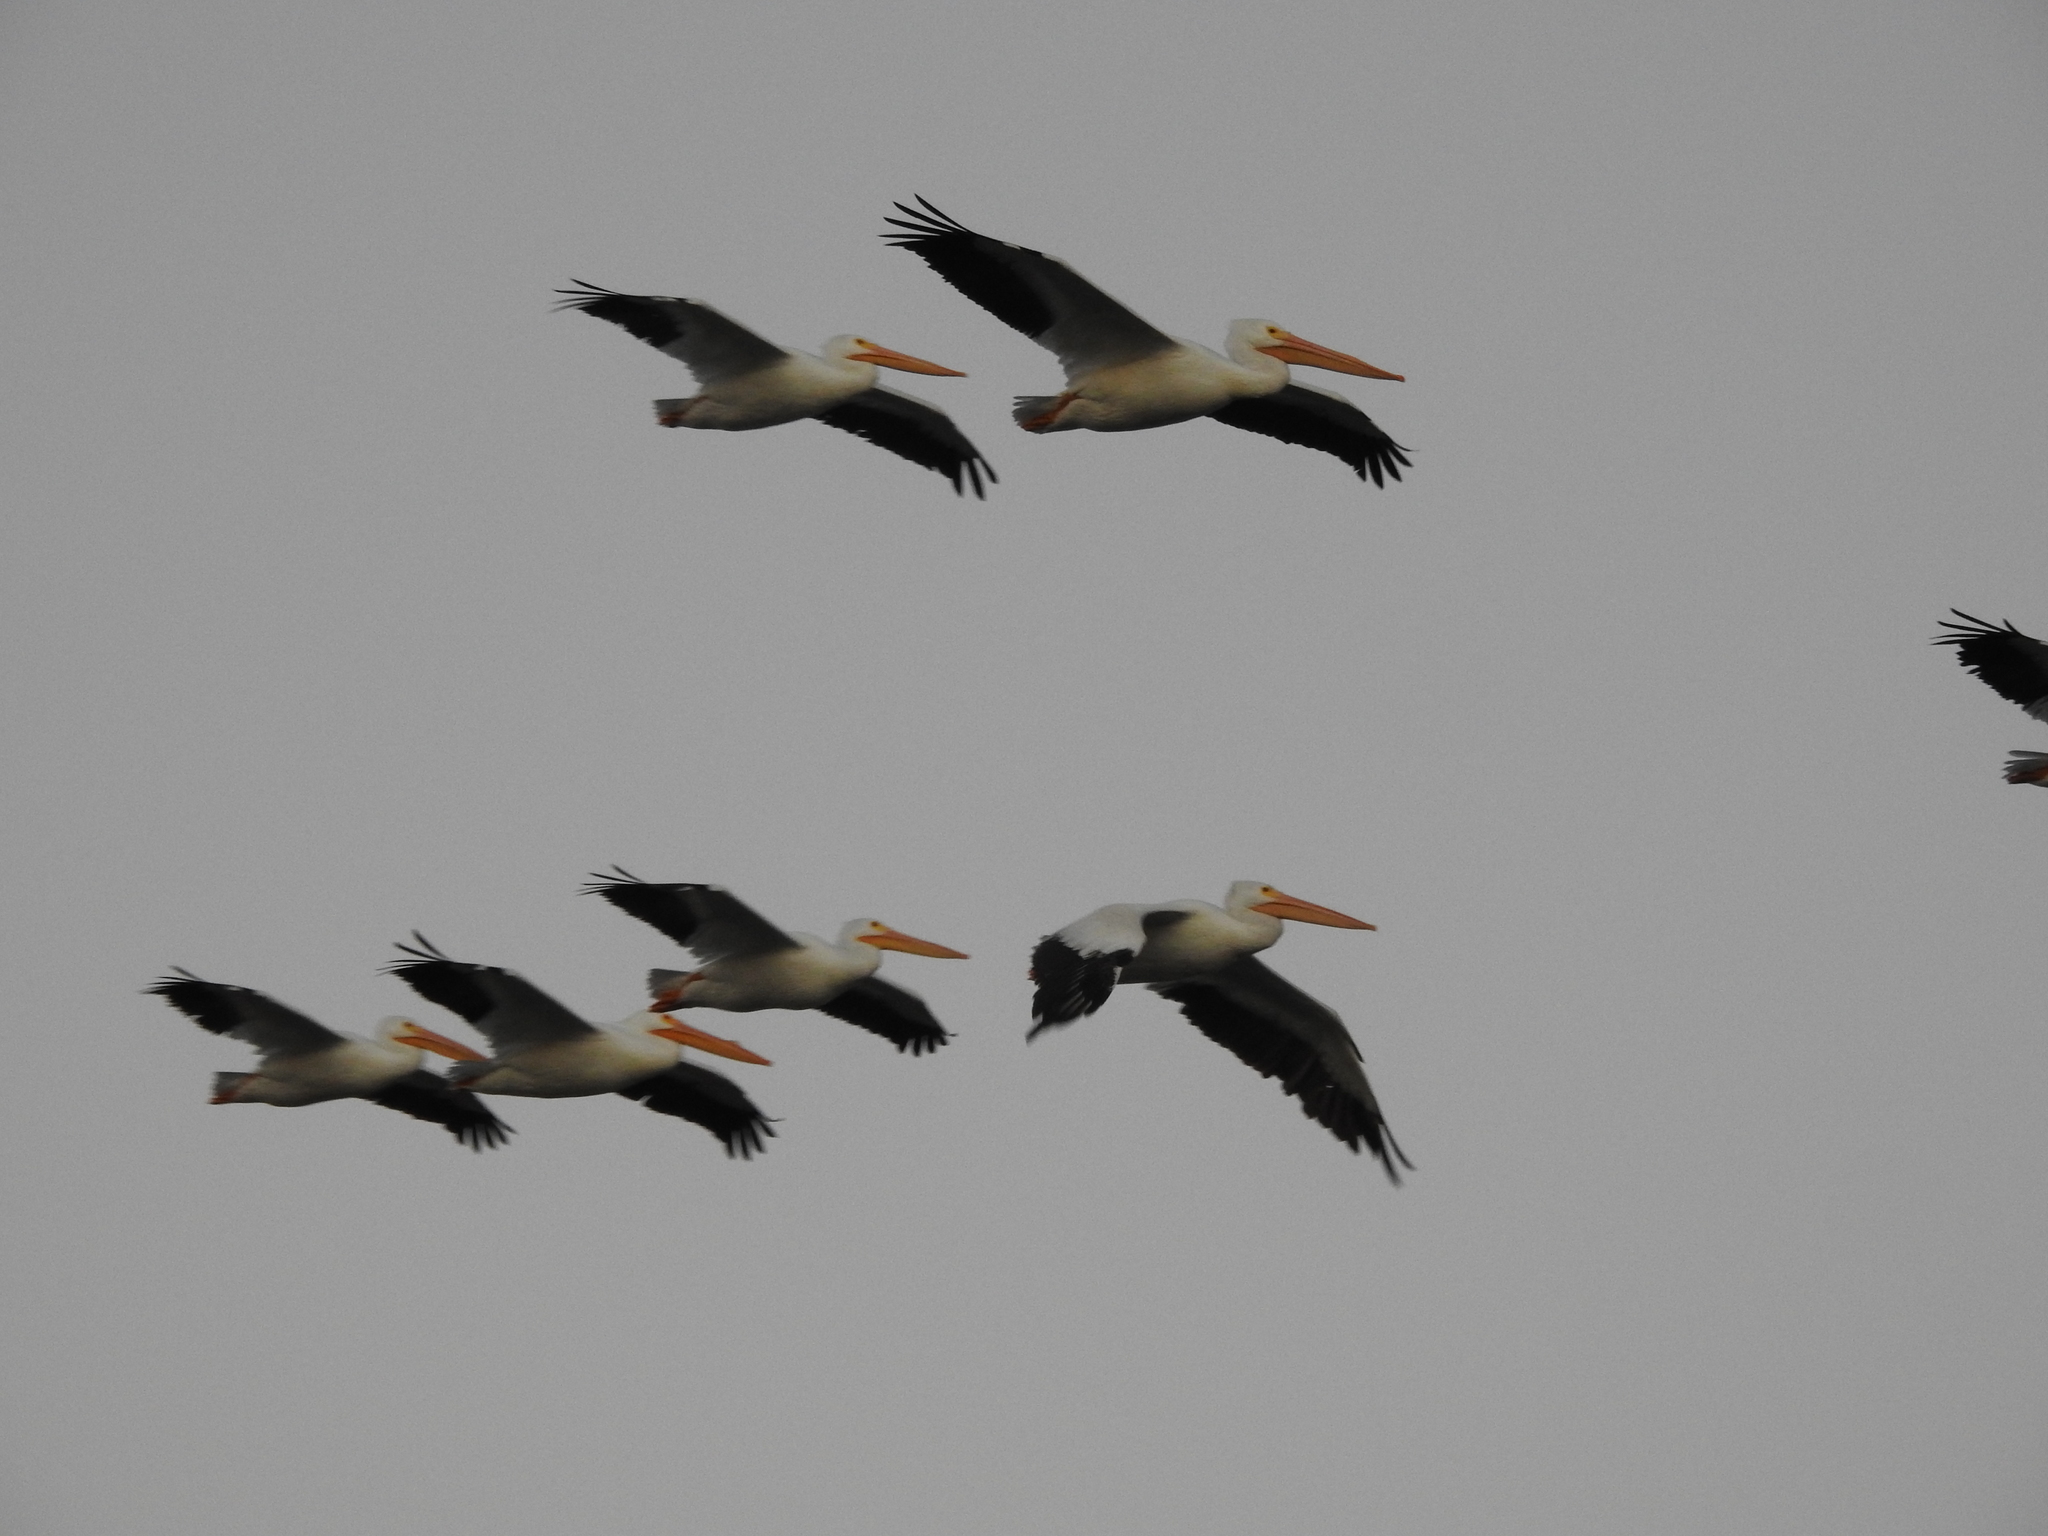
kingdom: Animalia
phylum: Chordata
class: Aves
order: Pelecaniformes
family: Pelecanidae
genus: Pelecanus
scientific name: Pelecanus erythrorhynchos
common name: American white pelican
